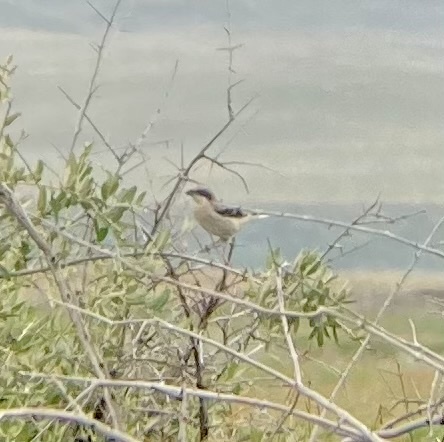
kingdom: Animalia
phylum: Chordata
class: Aves
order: Passeriformes
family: Laniidae
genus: Lanius
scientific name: Lanius ludovicianus
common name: Loggerhead shrike
